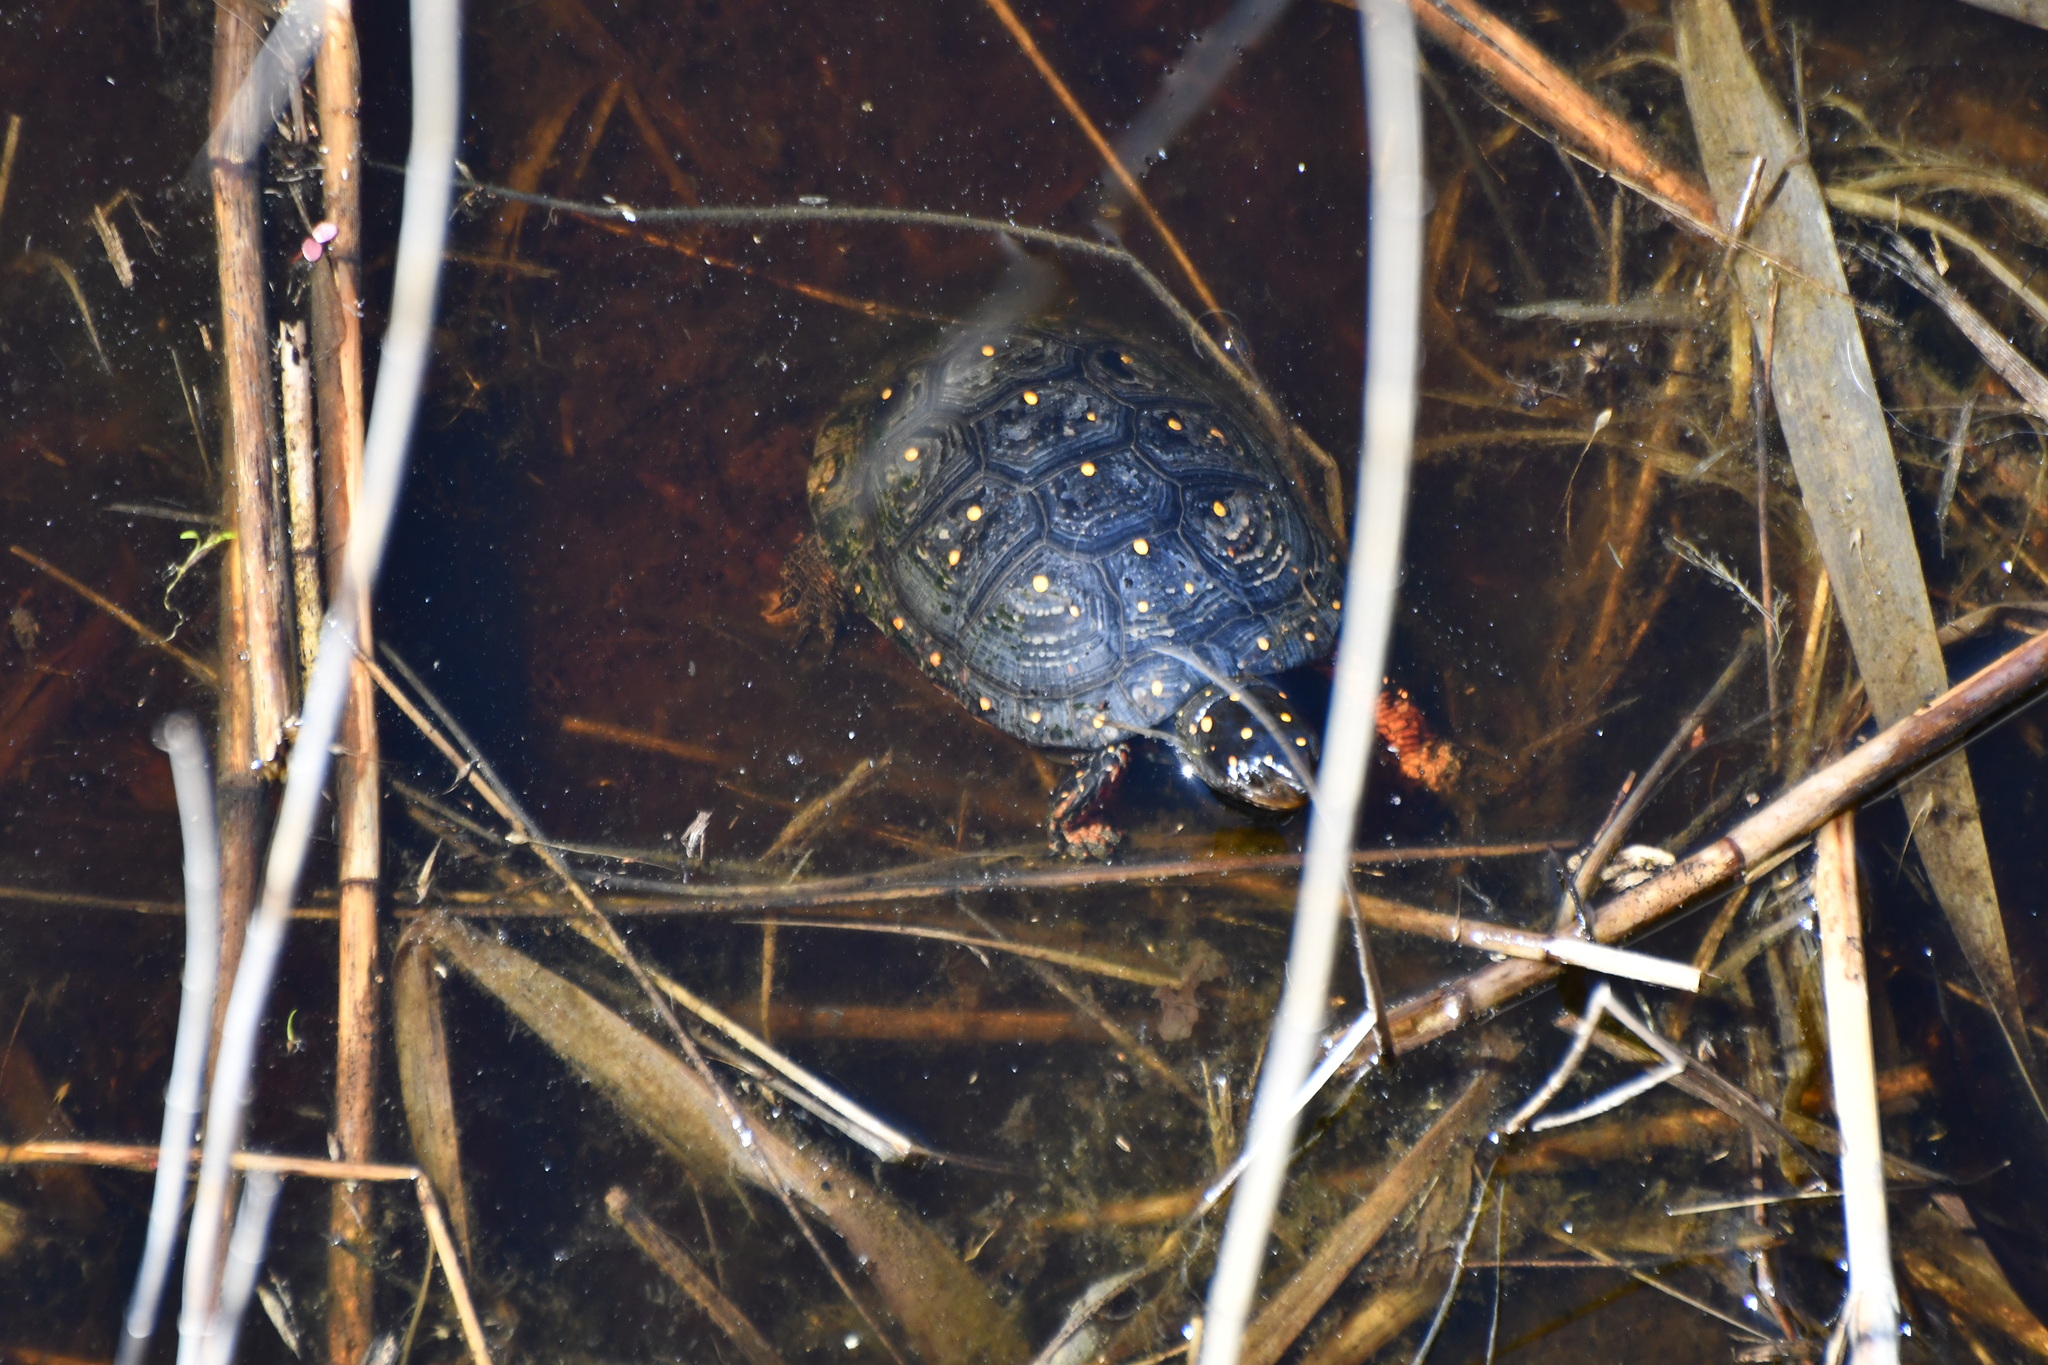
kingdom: Animalia
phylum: Chordata
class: Testudines
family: Emydidae
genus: Clemmys
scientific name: Clemmys guttata
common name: Spotted turtle
